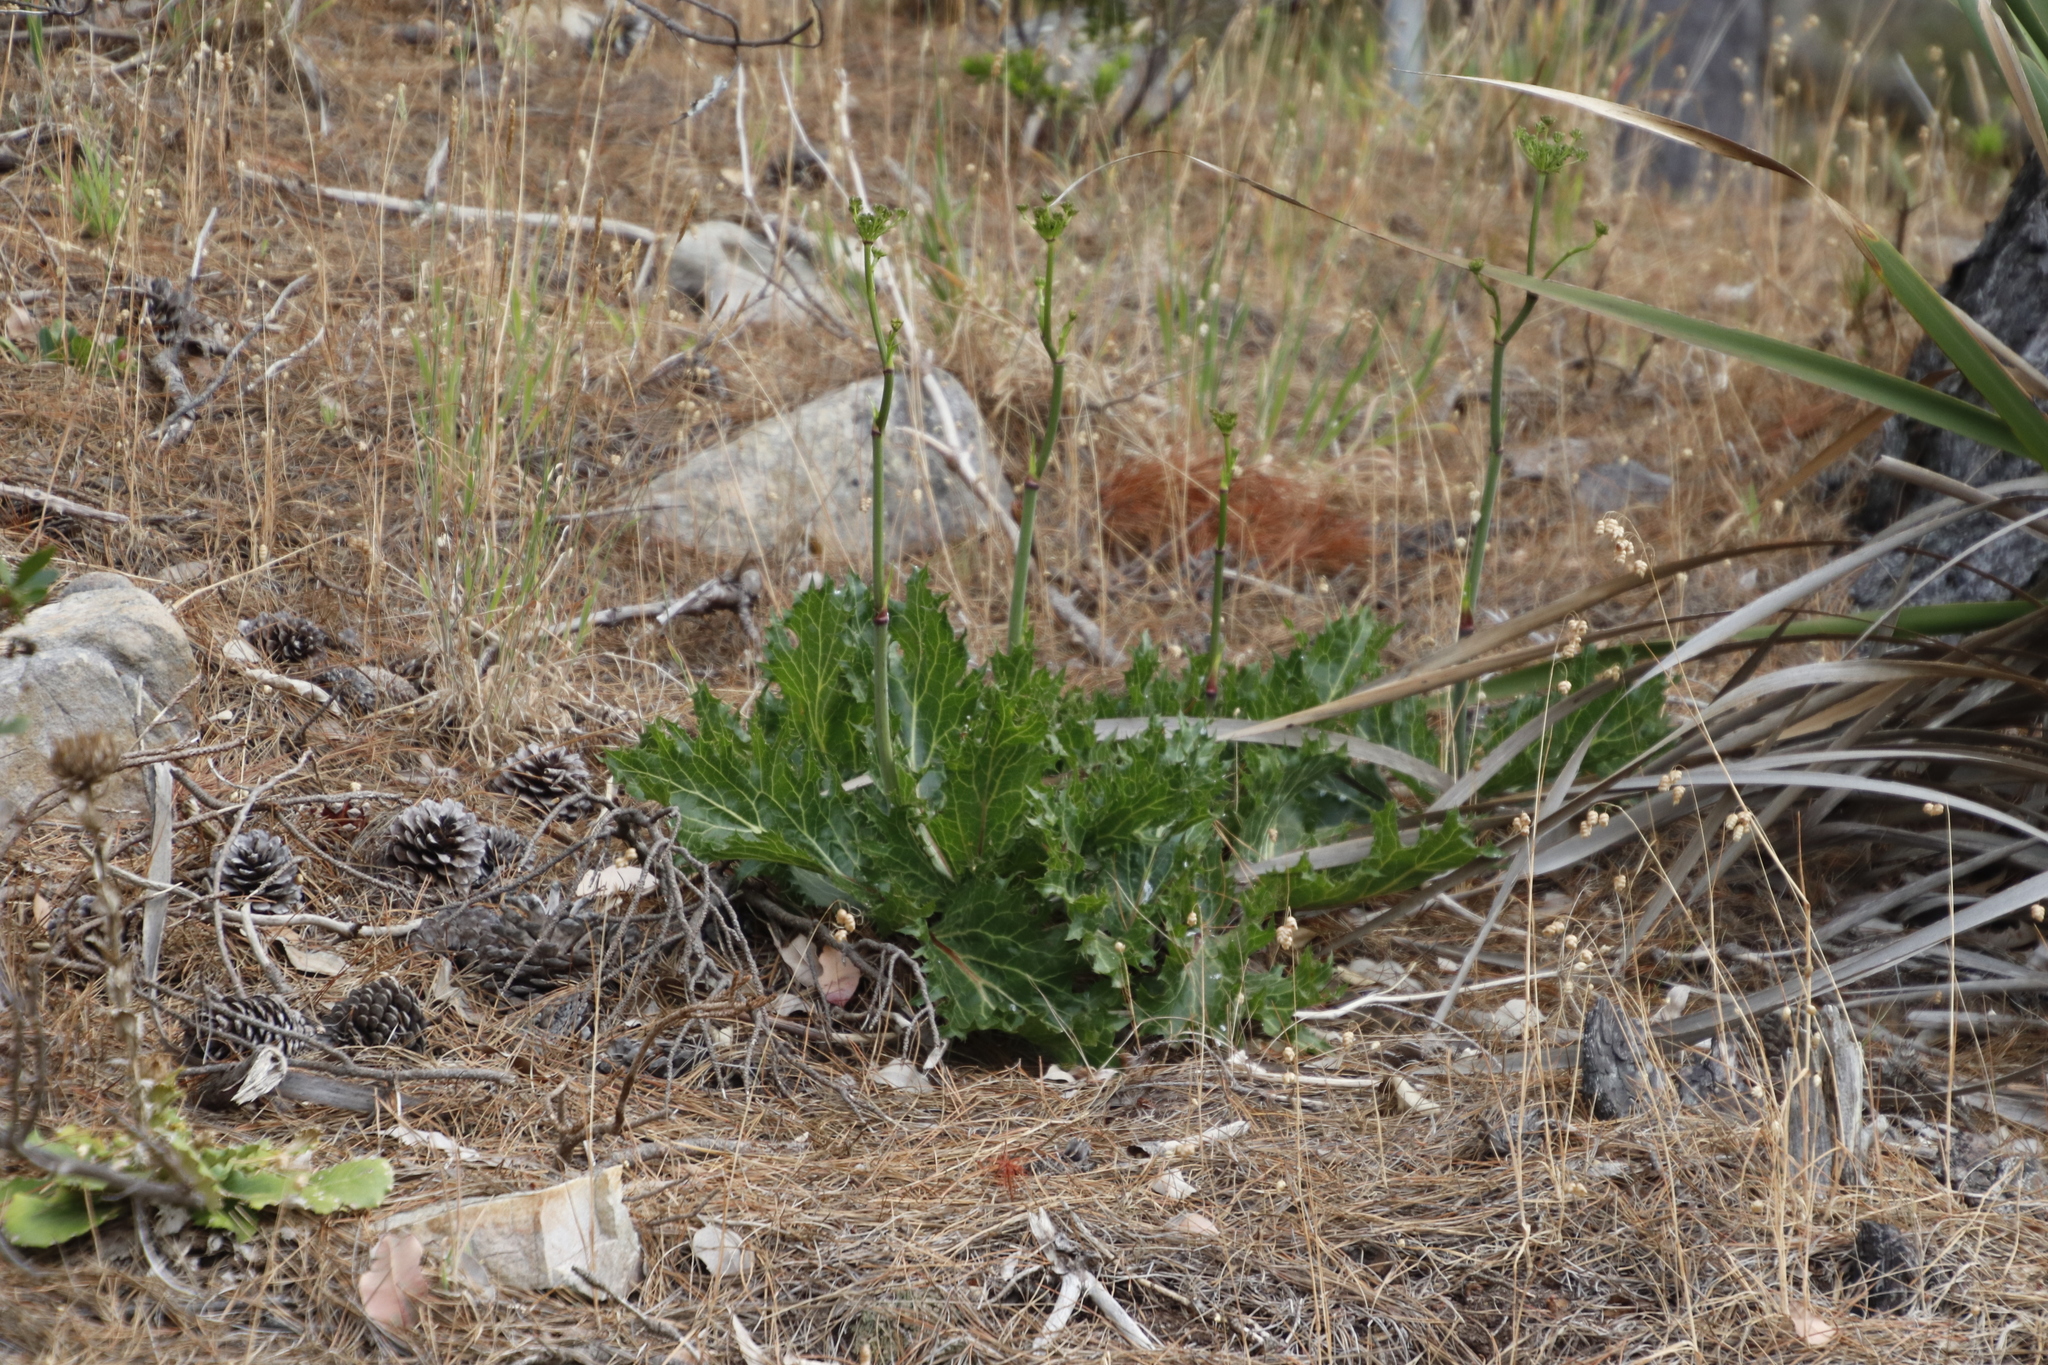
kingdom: Plantae
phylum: Tracheophyta
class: Magnoliopsida
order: Apiales
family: Apiaceae
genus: Lichtensteinia
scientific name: Lichtensteinia lacera
